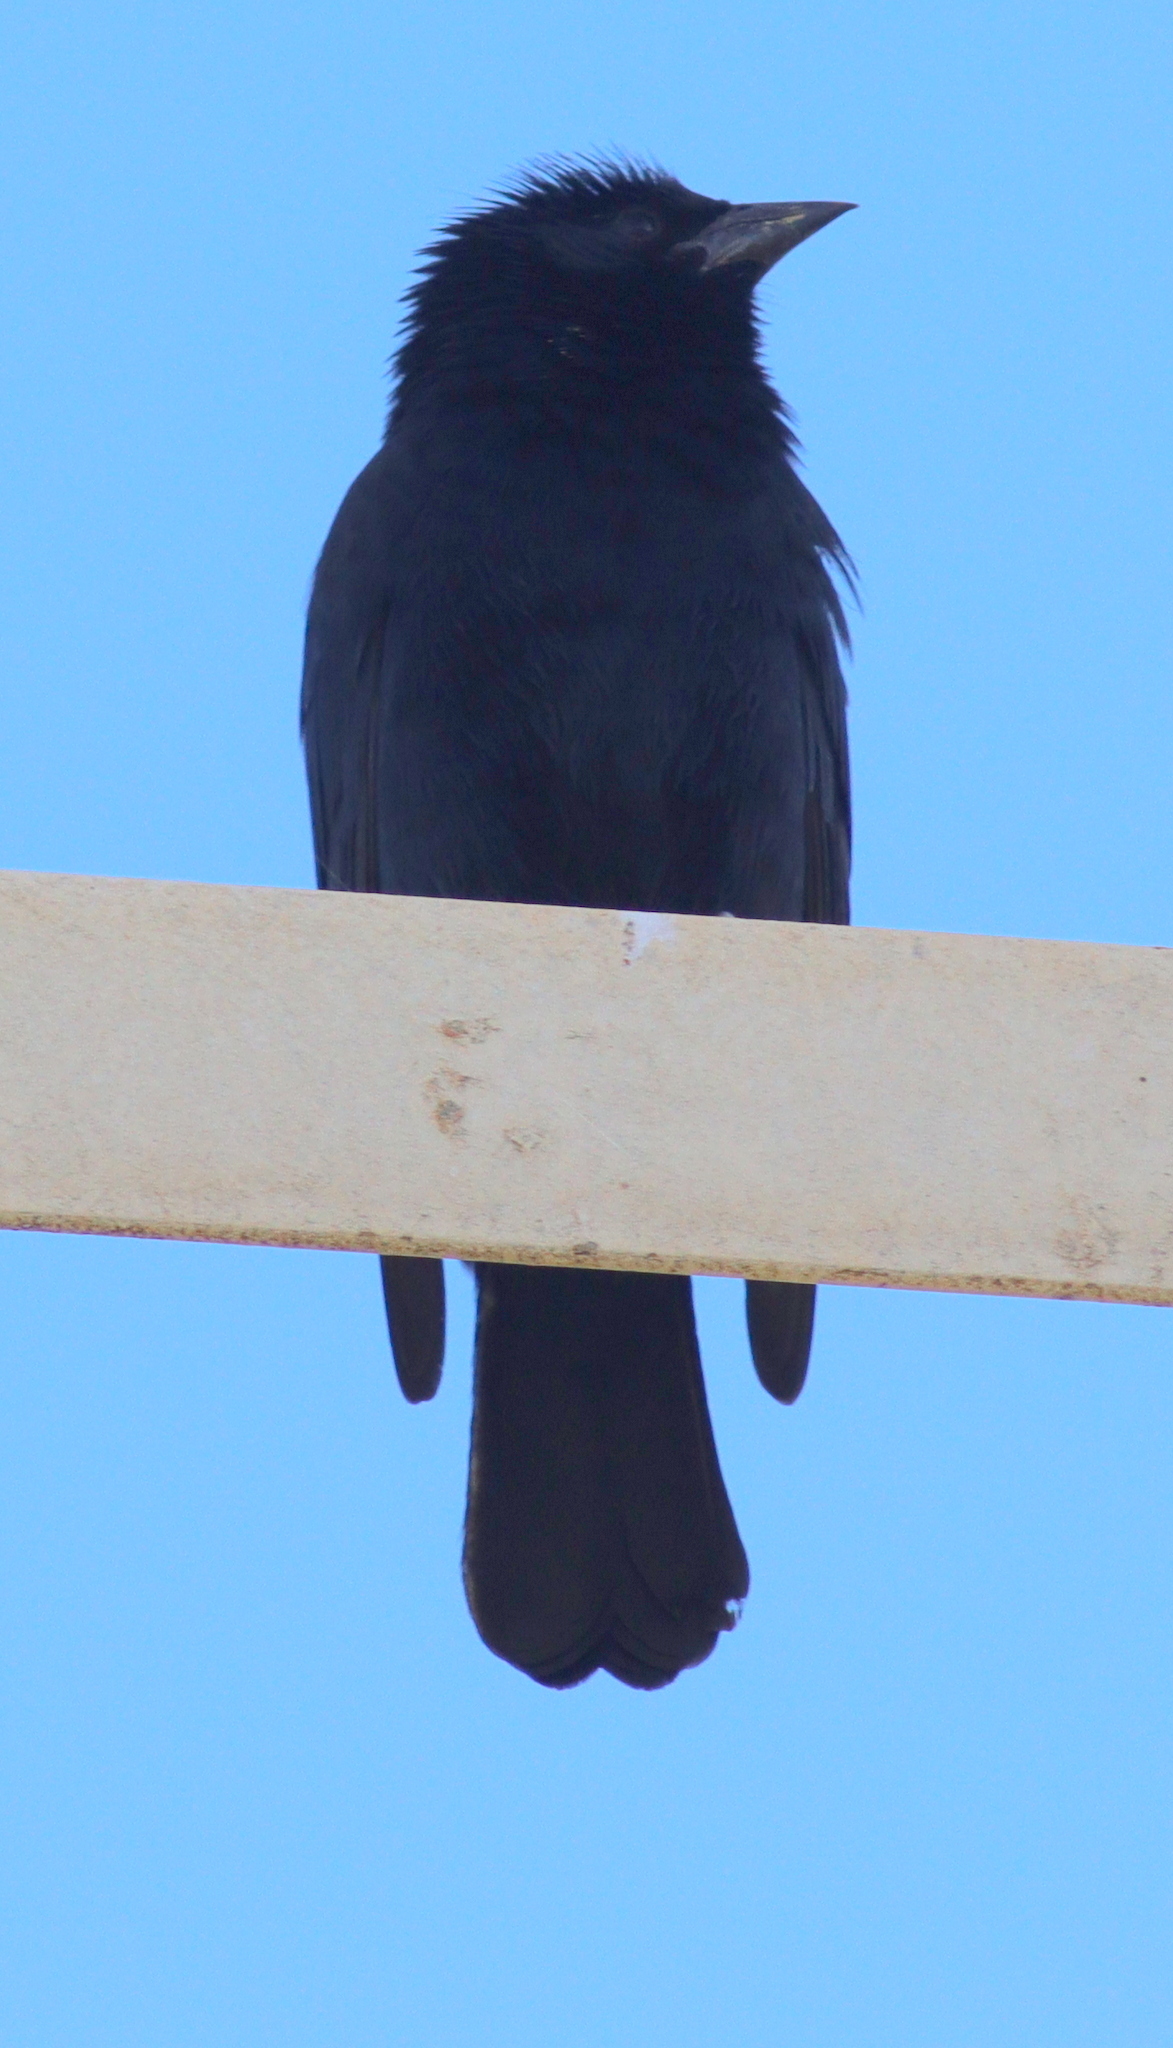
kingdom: Animalia
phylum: Chordata
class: Aves
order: Passeriformes
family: Icteridae
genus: Gnorimopsar
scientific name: Gnorimopsar chopi
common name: Chopi blackbird
